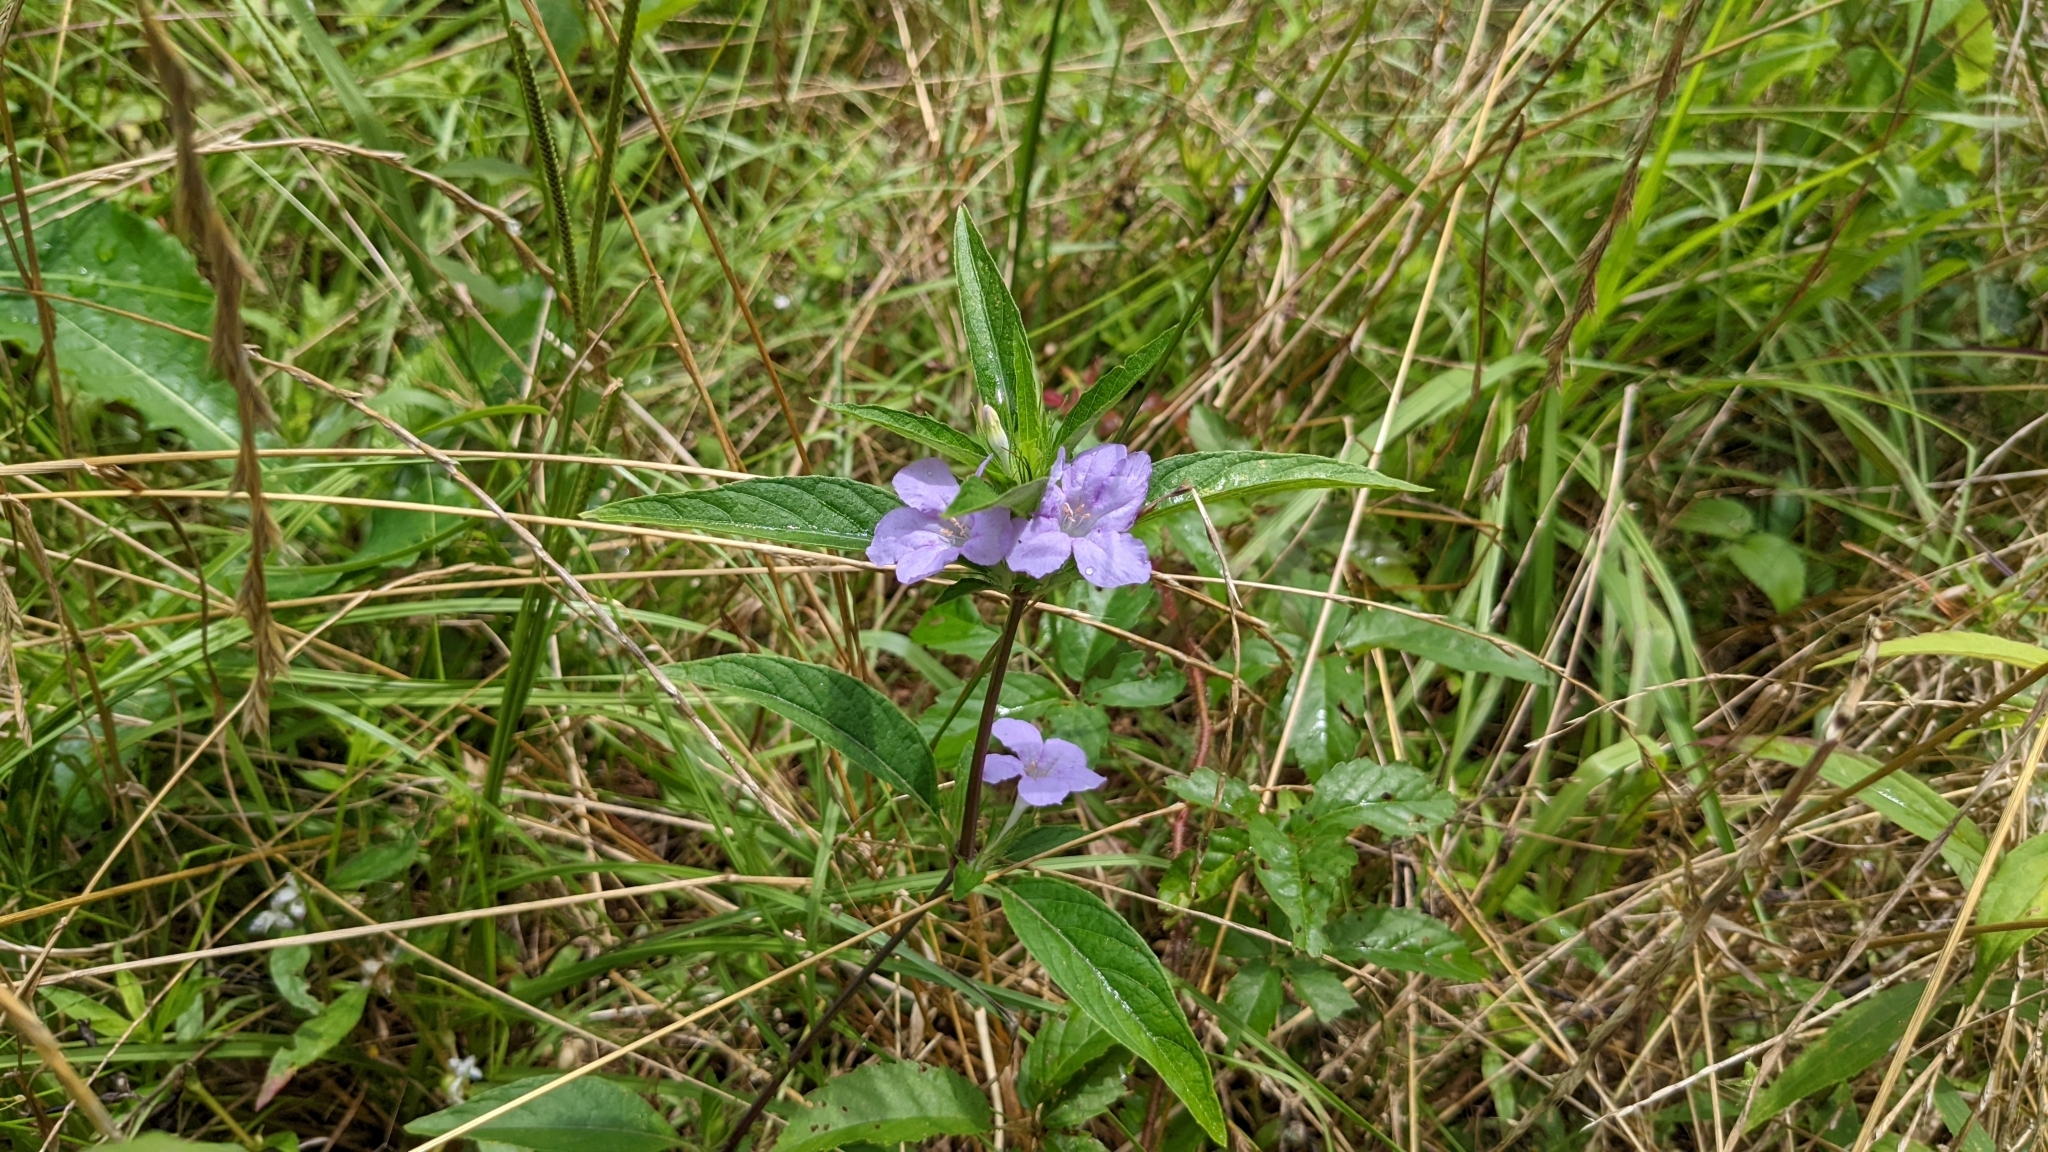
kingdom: Plantae
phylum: Tracheophyta
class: Magnoliopsida
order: Lamiales
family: Acanthaceae
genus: Ruellia
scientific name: Ruellia caroliniensis
